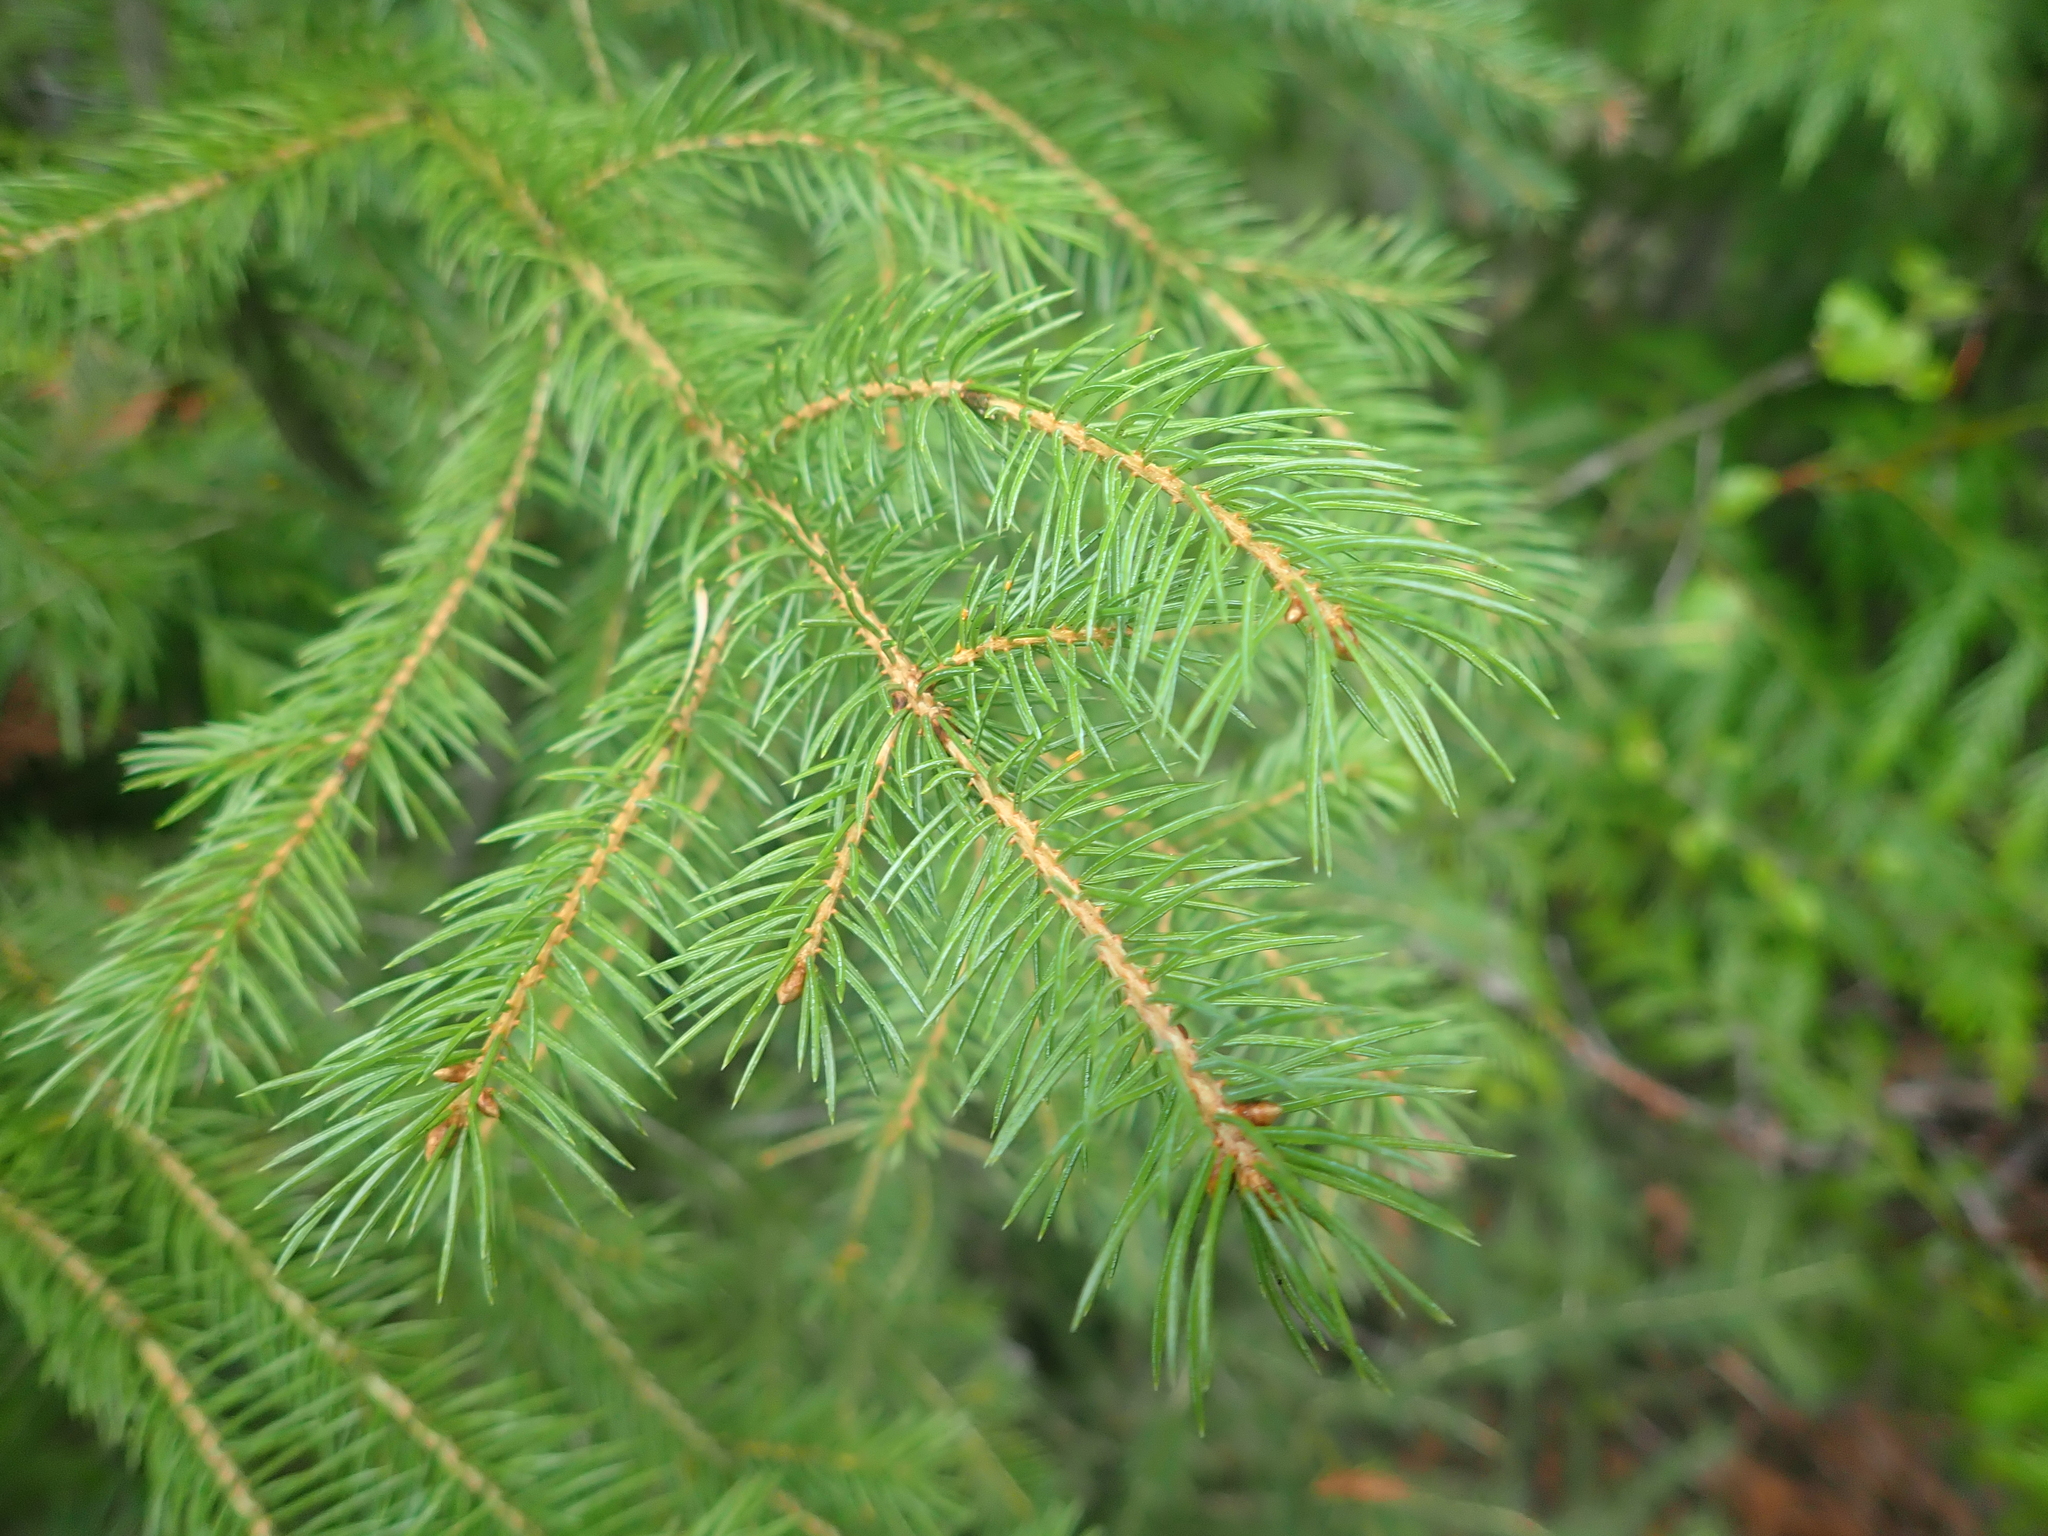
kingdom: Plantae
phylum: Tracheophyta
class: Pinopsida
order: Pinales
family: Pinaceae
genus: Picea
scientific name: Picea engelmannii
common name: Engelmann spruce
